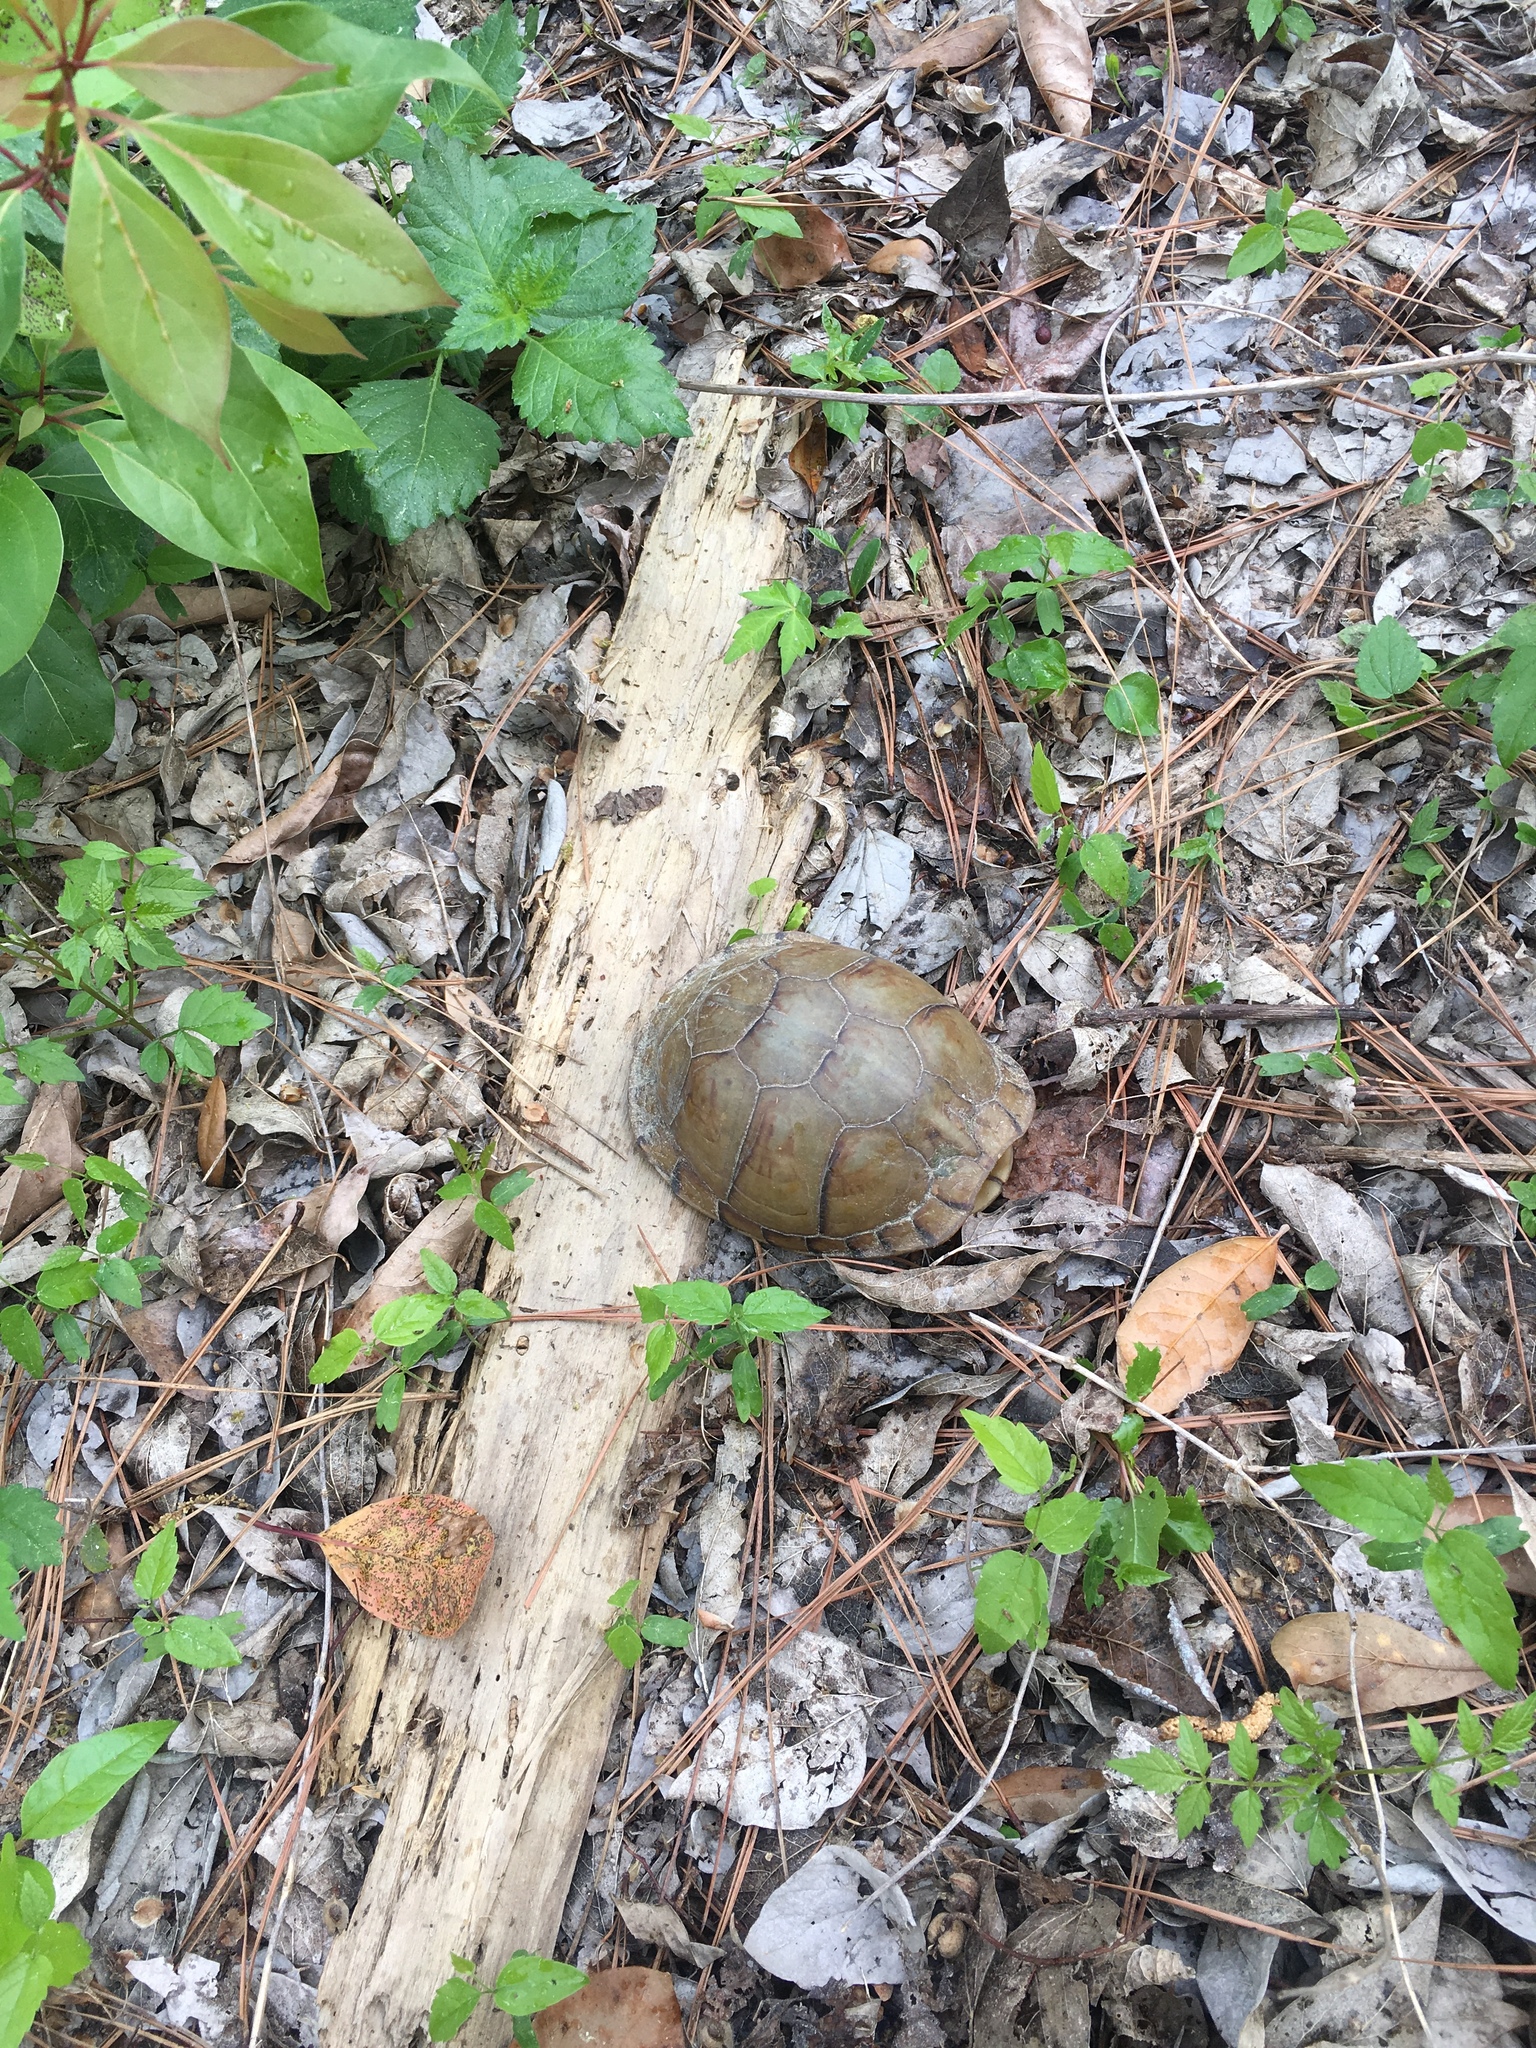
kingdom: Animalia
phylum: Chordata
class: Testudines
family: Emydidae
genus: Terrapene
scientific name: Terrapene carolina
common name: Common box turtle
